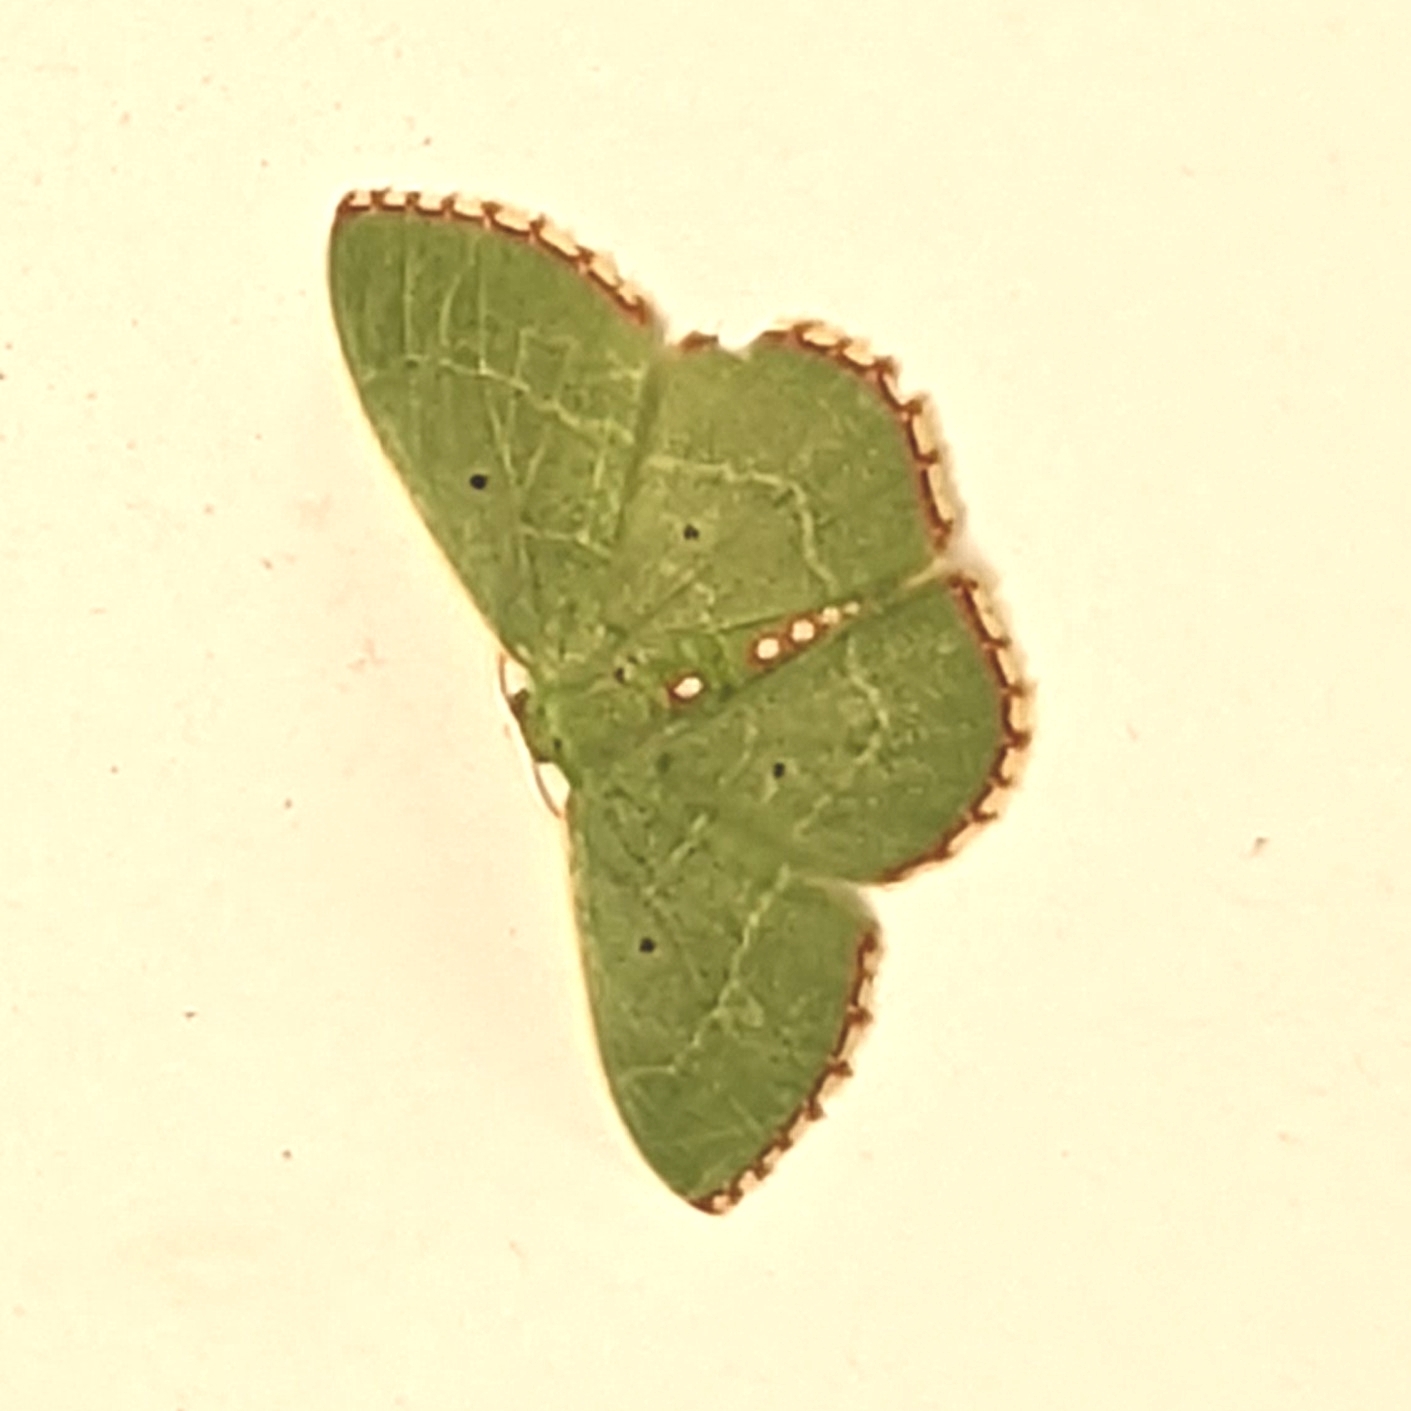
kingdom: Animalia
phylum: Arthropoda
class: Insecta
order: Lepidoptera
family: Geometridae
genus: Nemoria
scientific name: Nemoria lixaria
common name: Red-bordered emerald
